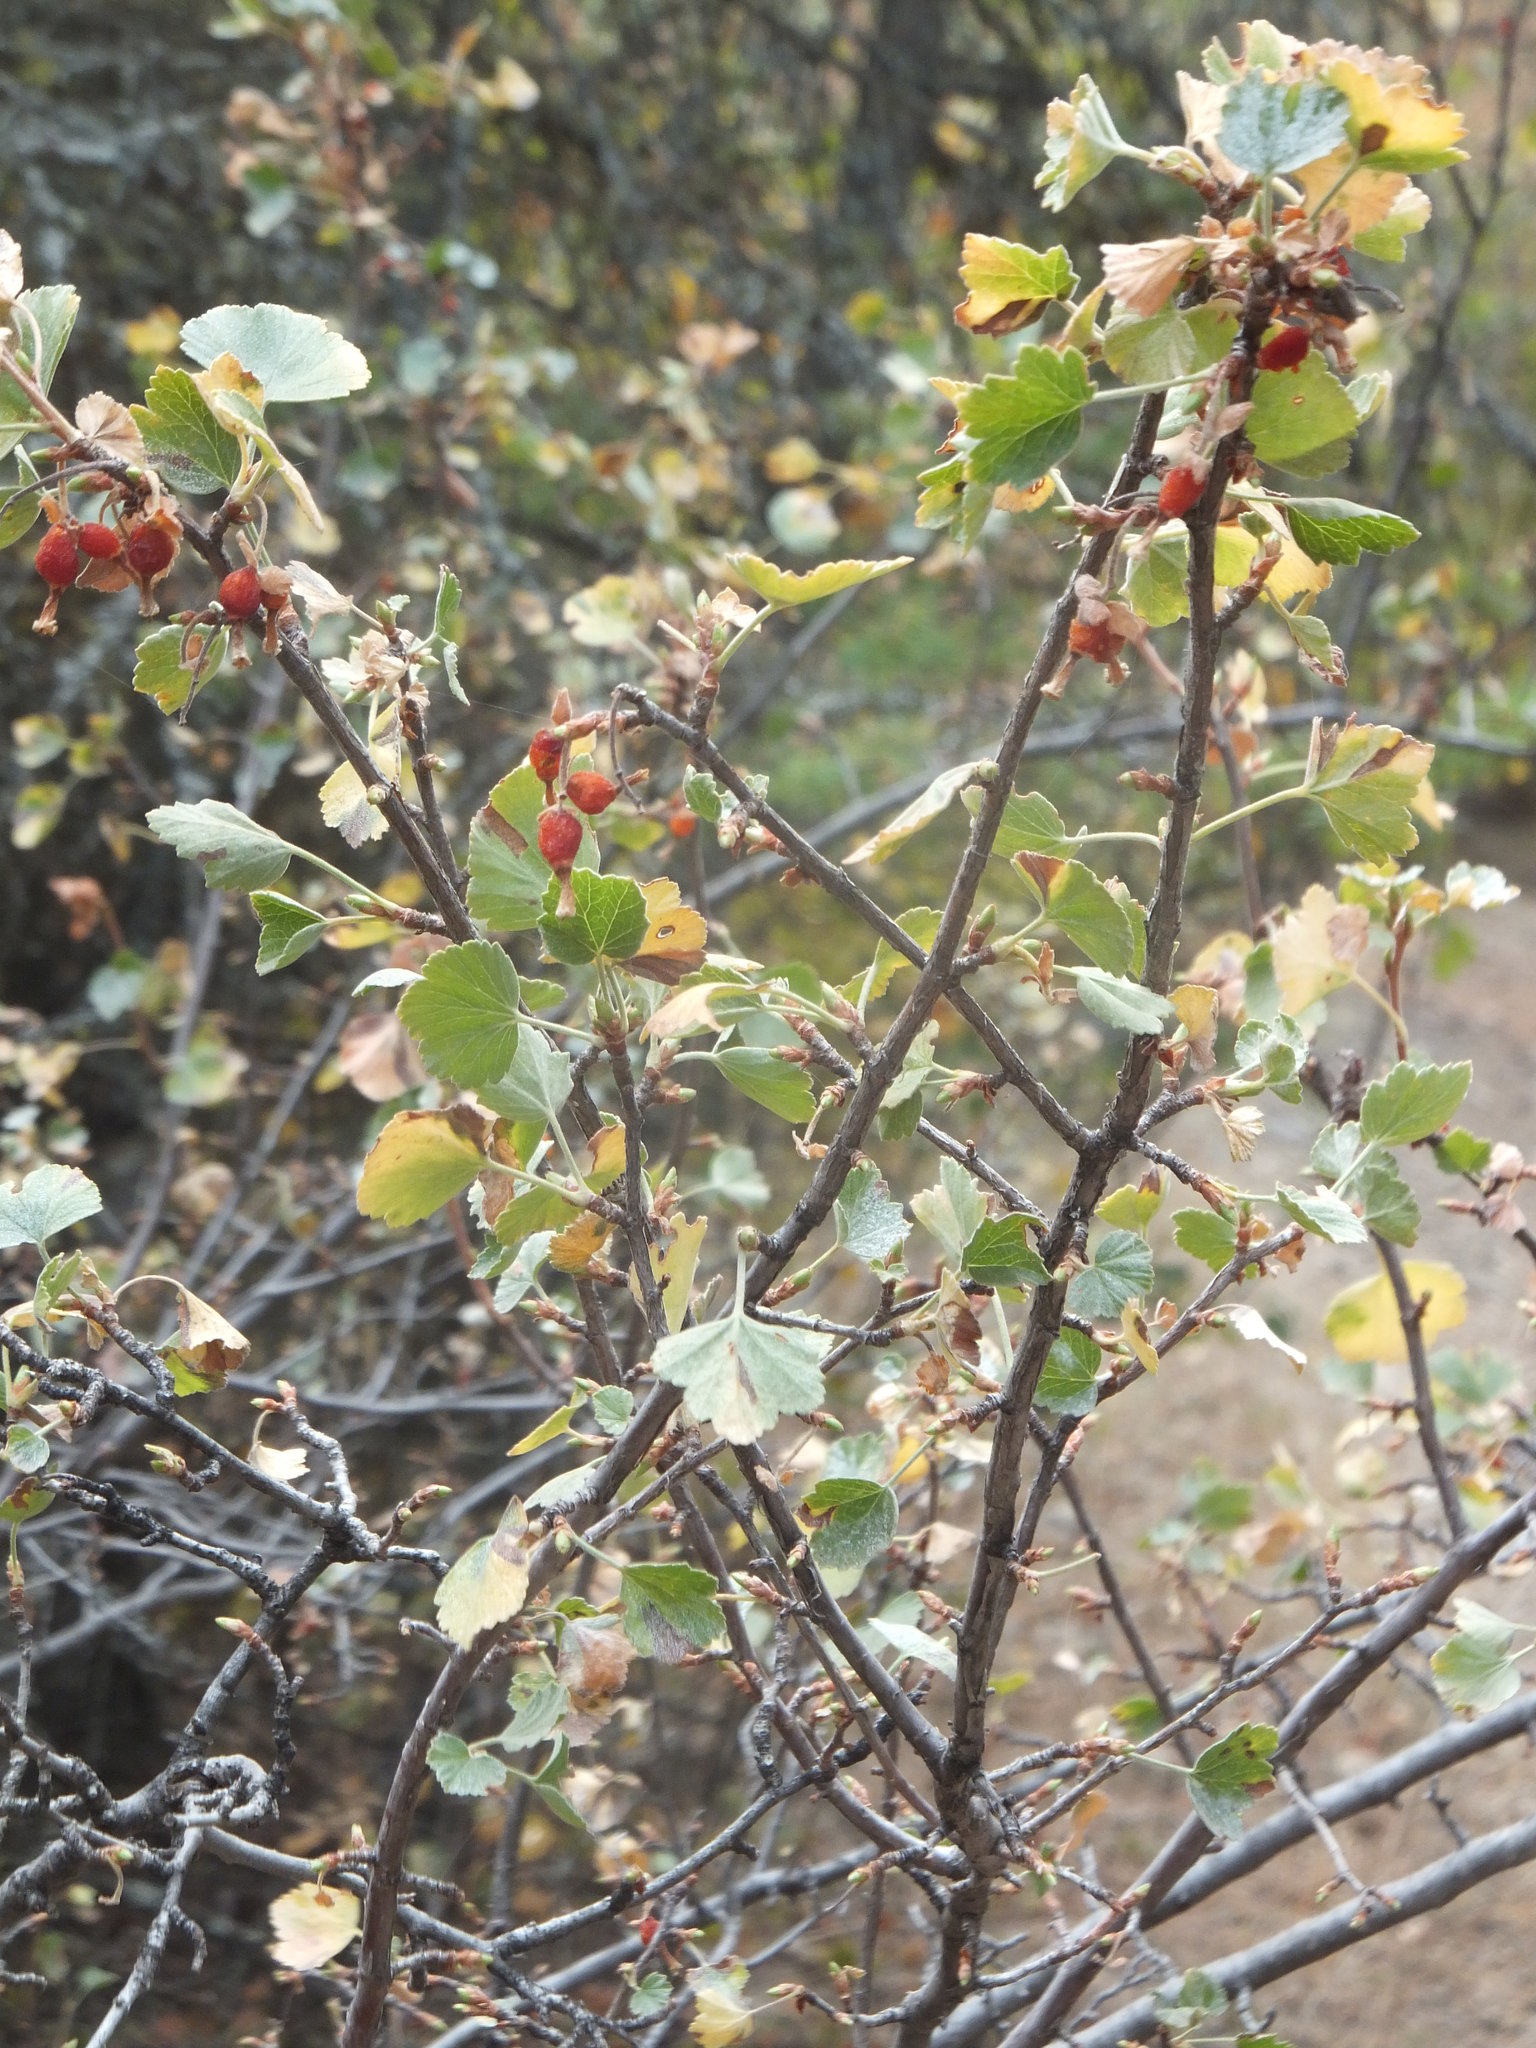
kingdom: Plantae
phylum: Tracheophyta
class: Magnoliopsida
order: Saxifragales
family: Grossulariaceae
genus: Ribes
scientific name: Ribes cereum
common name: Wax currant
